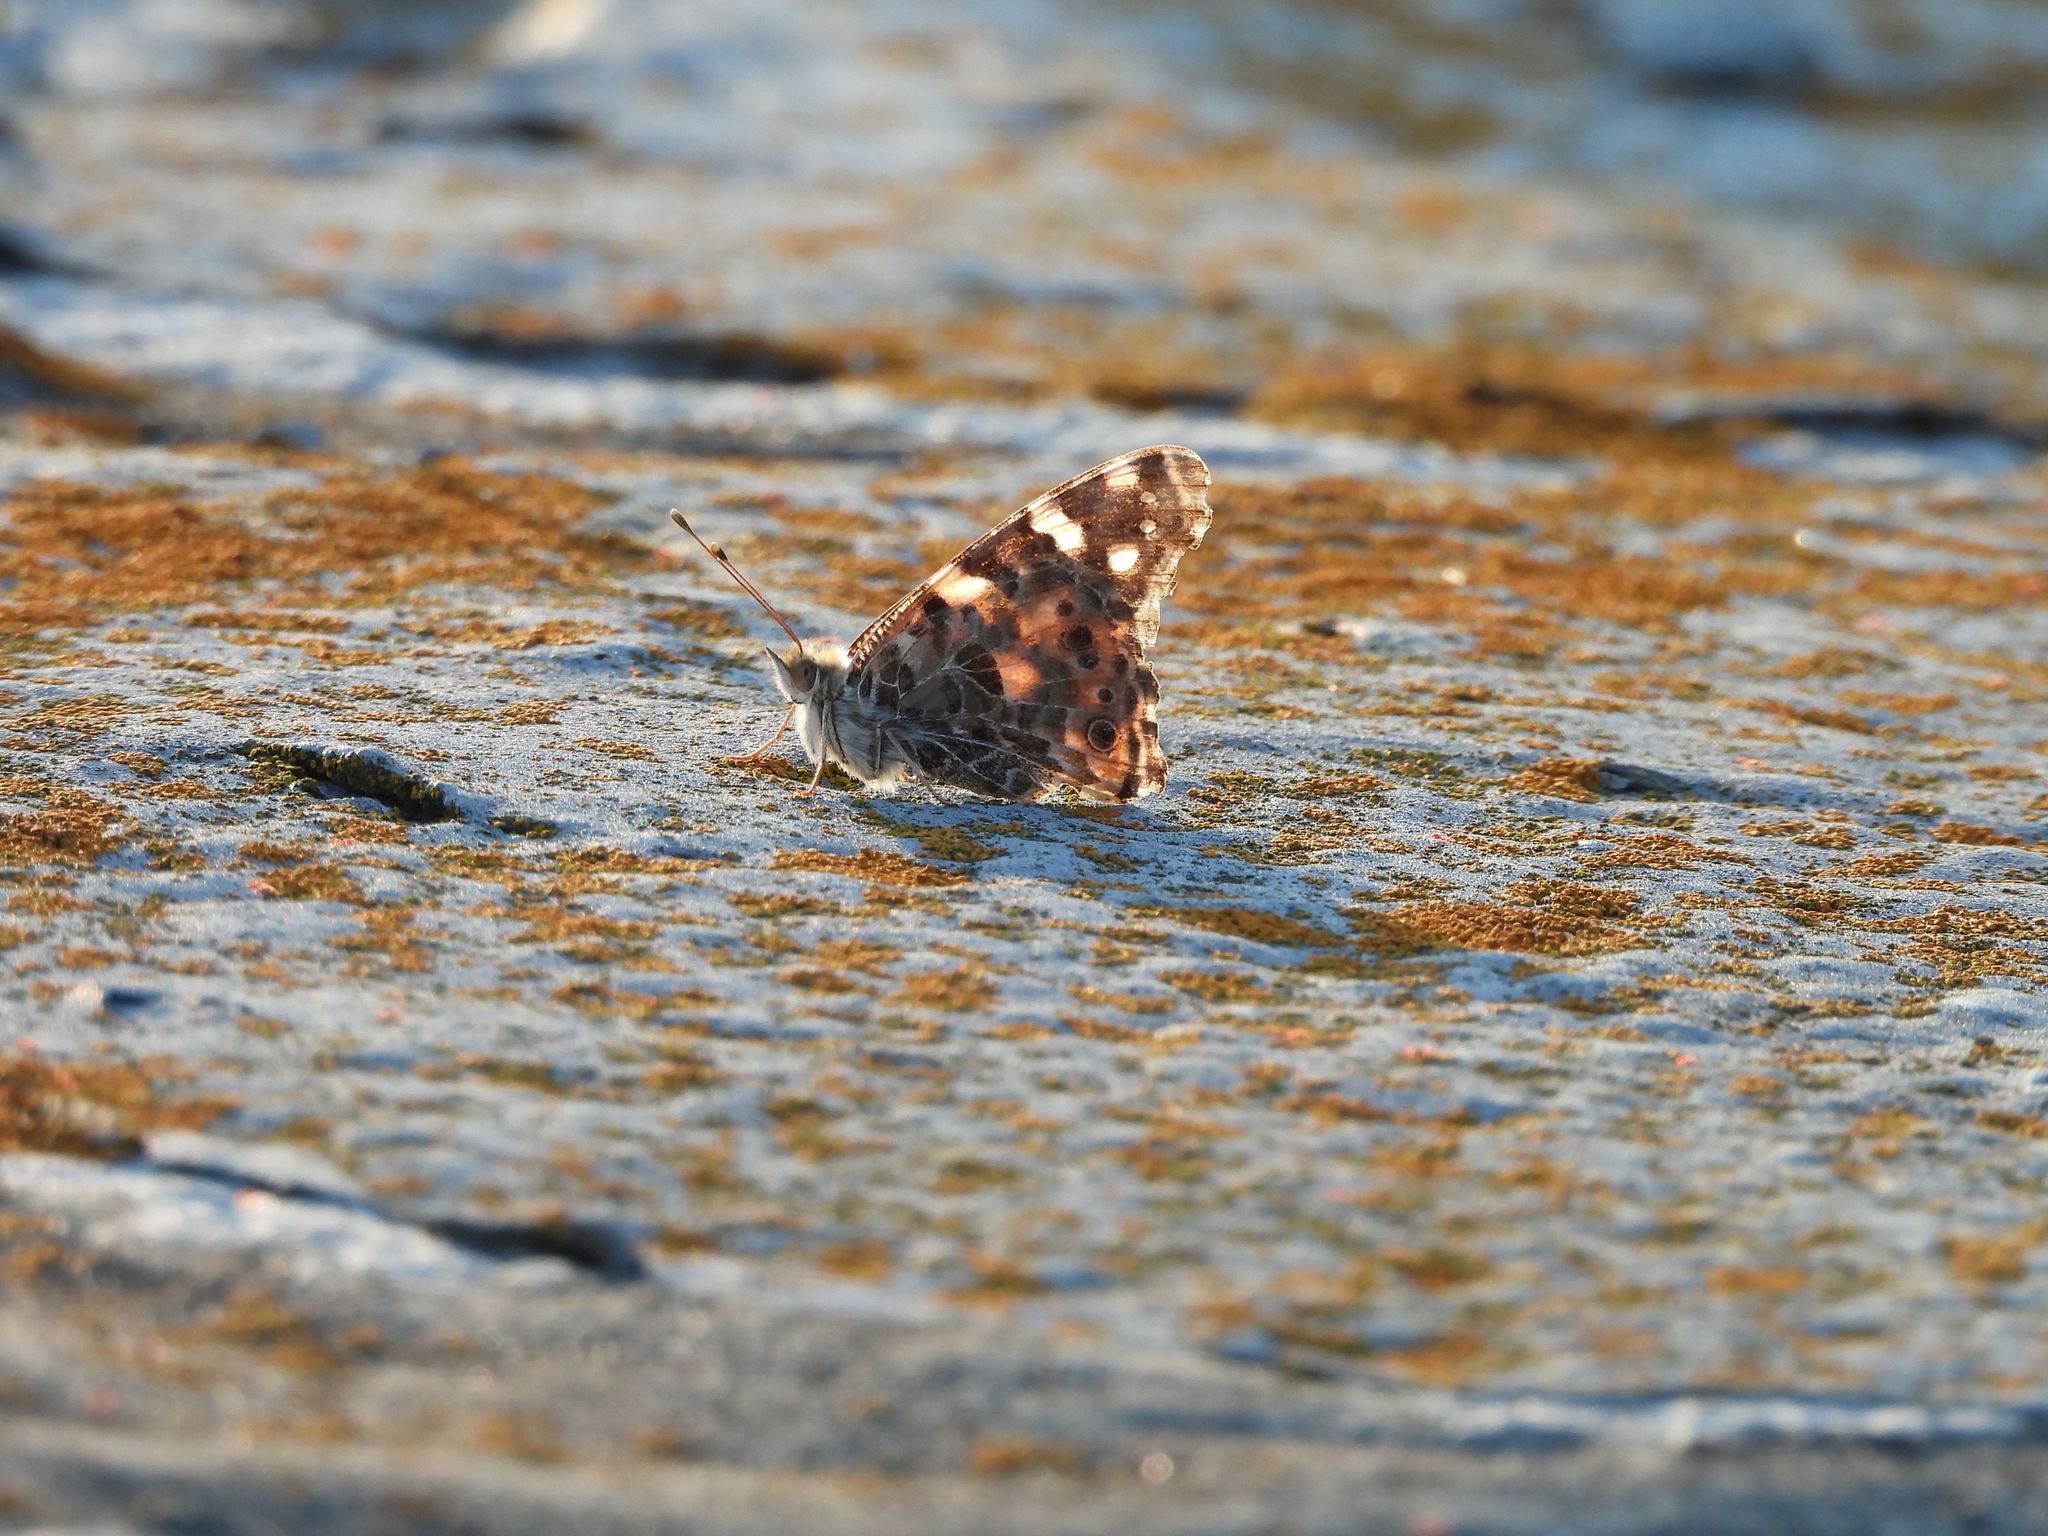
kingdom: Animalia
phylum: Arthropoda
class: Insecta
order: Lepidoptera
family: Nymphalidae
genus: Vanessa
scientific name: Vanessa cardui
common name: Painted lady
